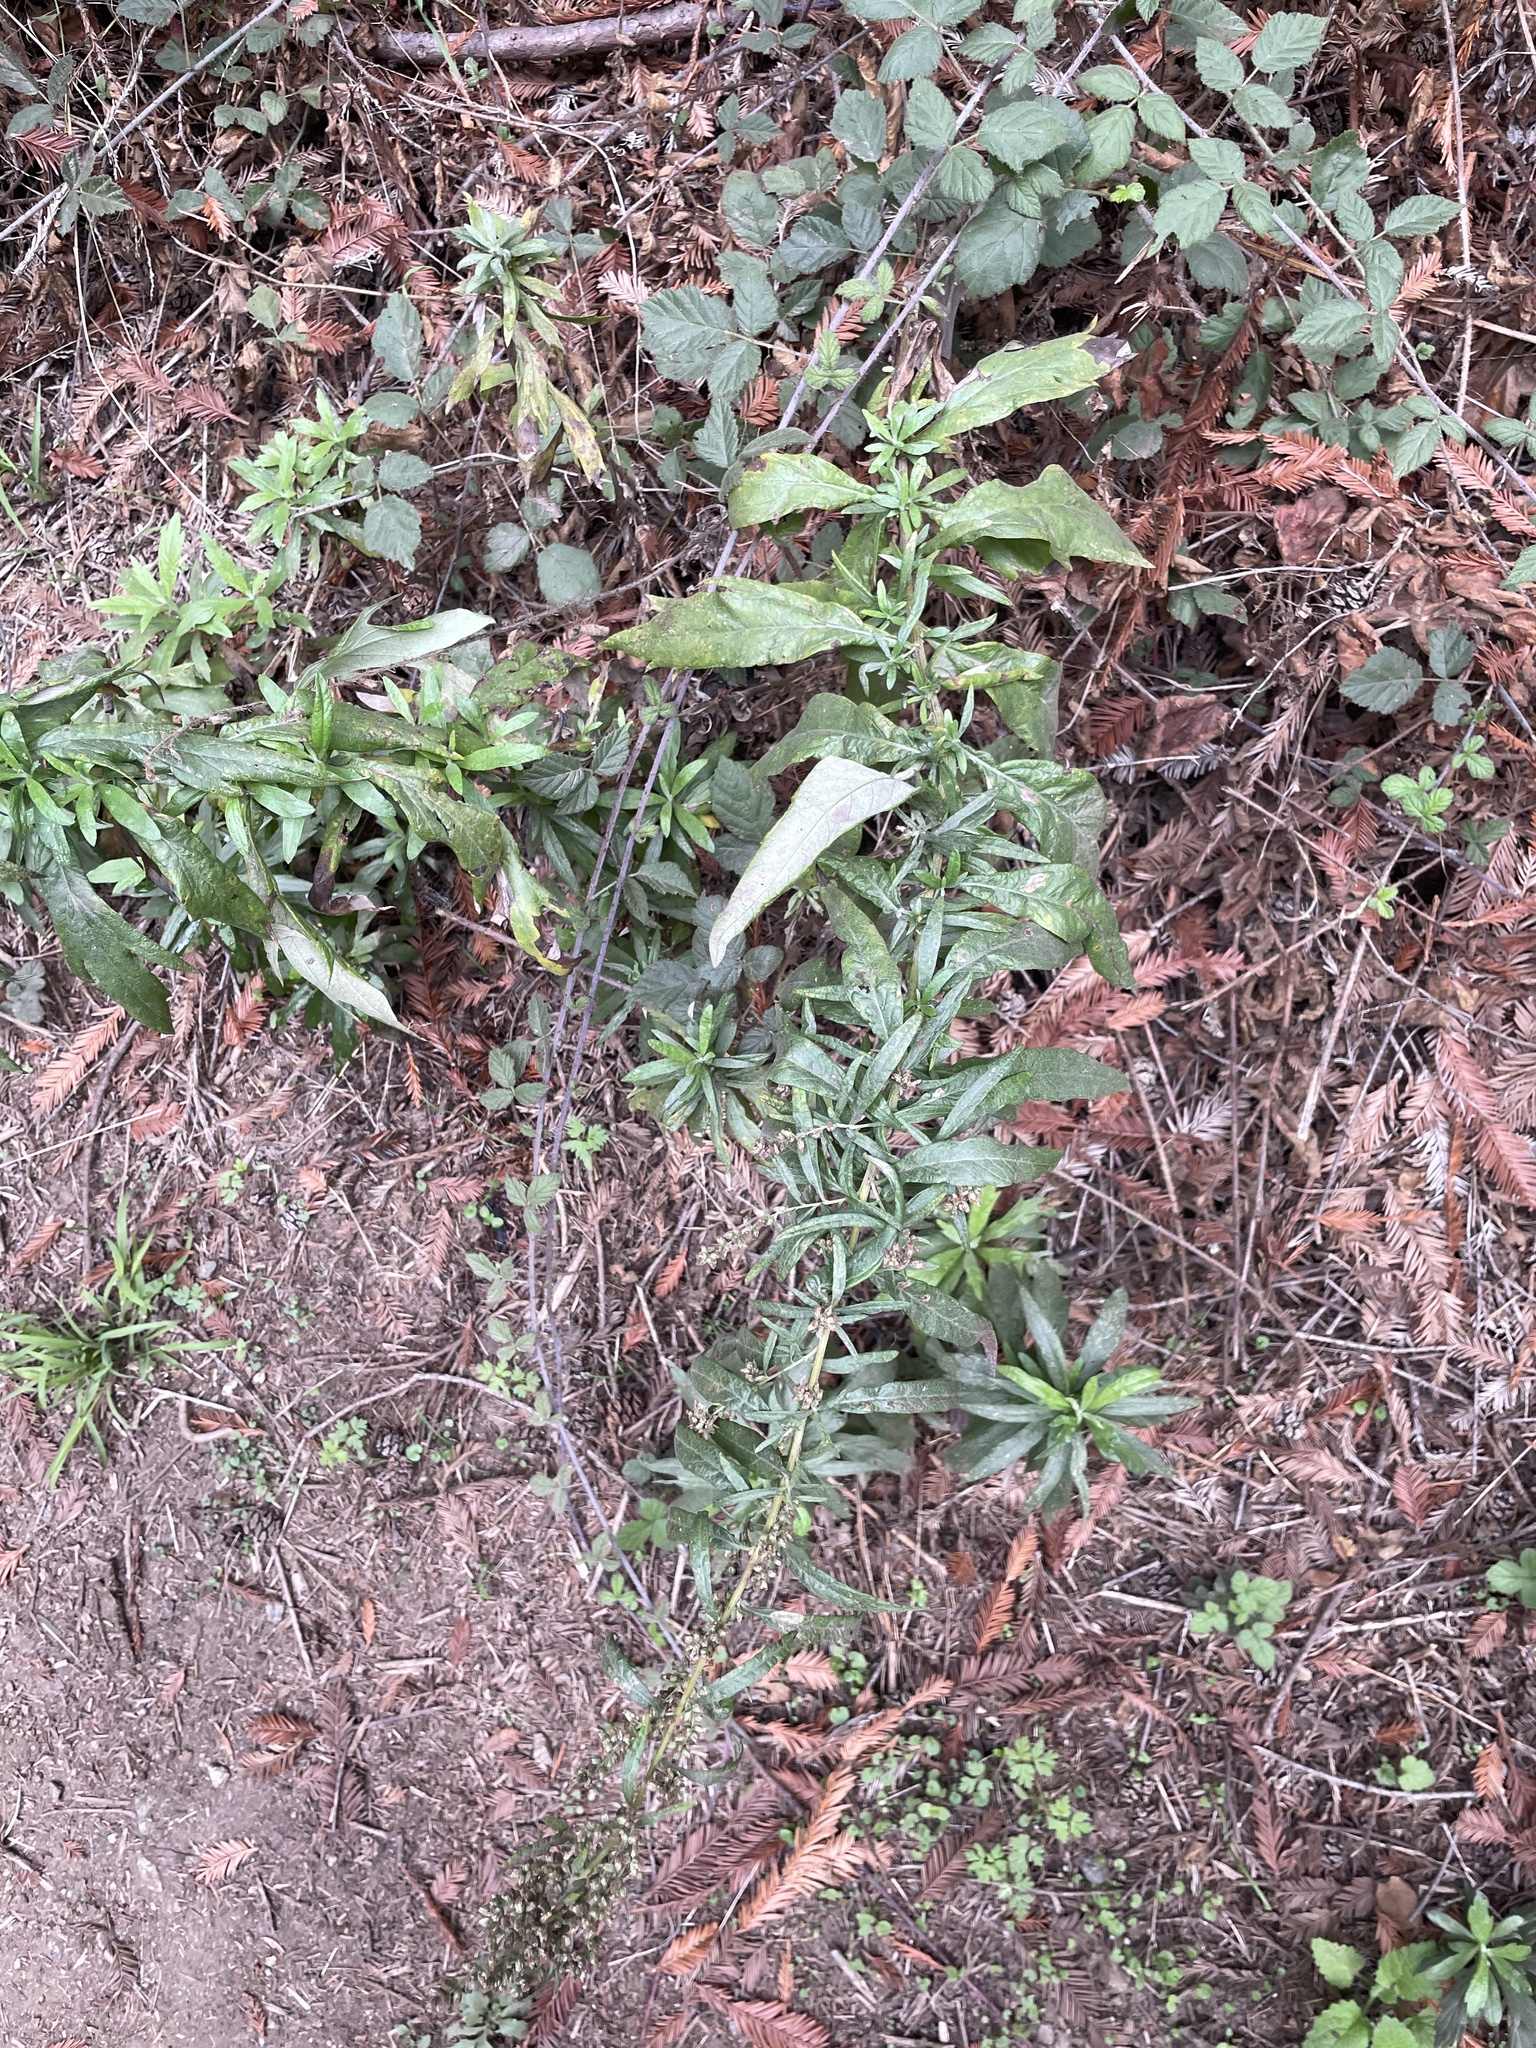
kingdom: Plantae
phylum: Tracheophyta
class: Magnoliopsida
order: Asterales
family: Asteraceae
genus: Artemisia
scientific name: Artemisia douglasiana
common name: Northwest mugwort
